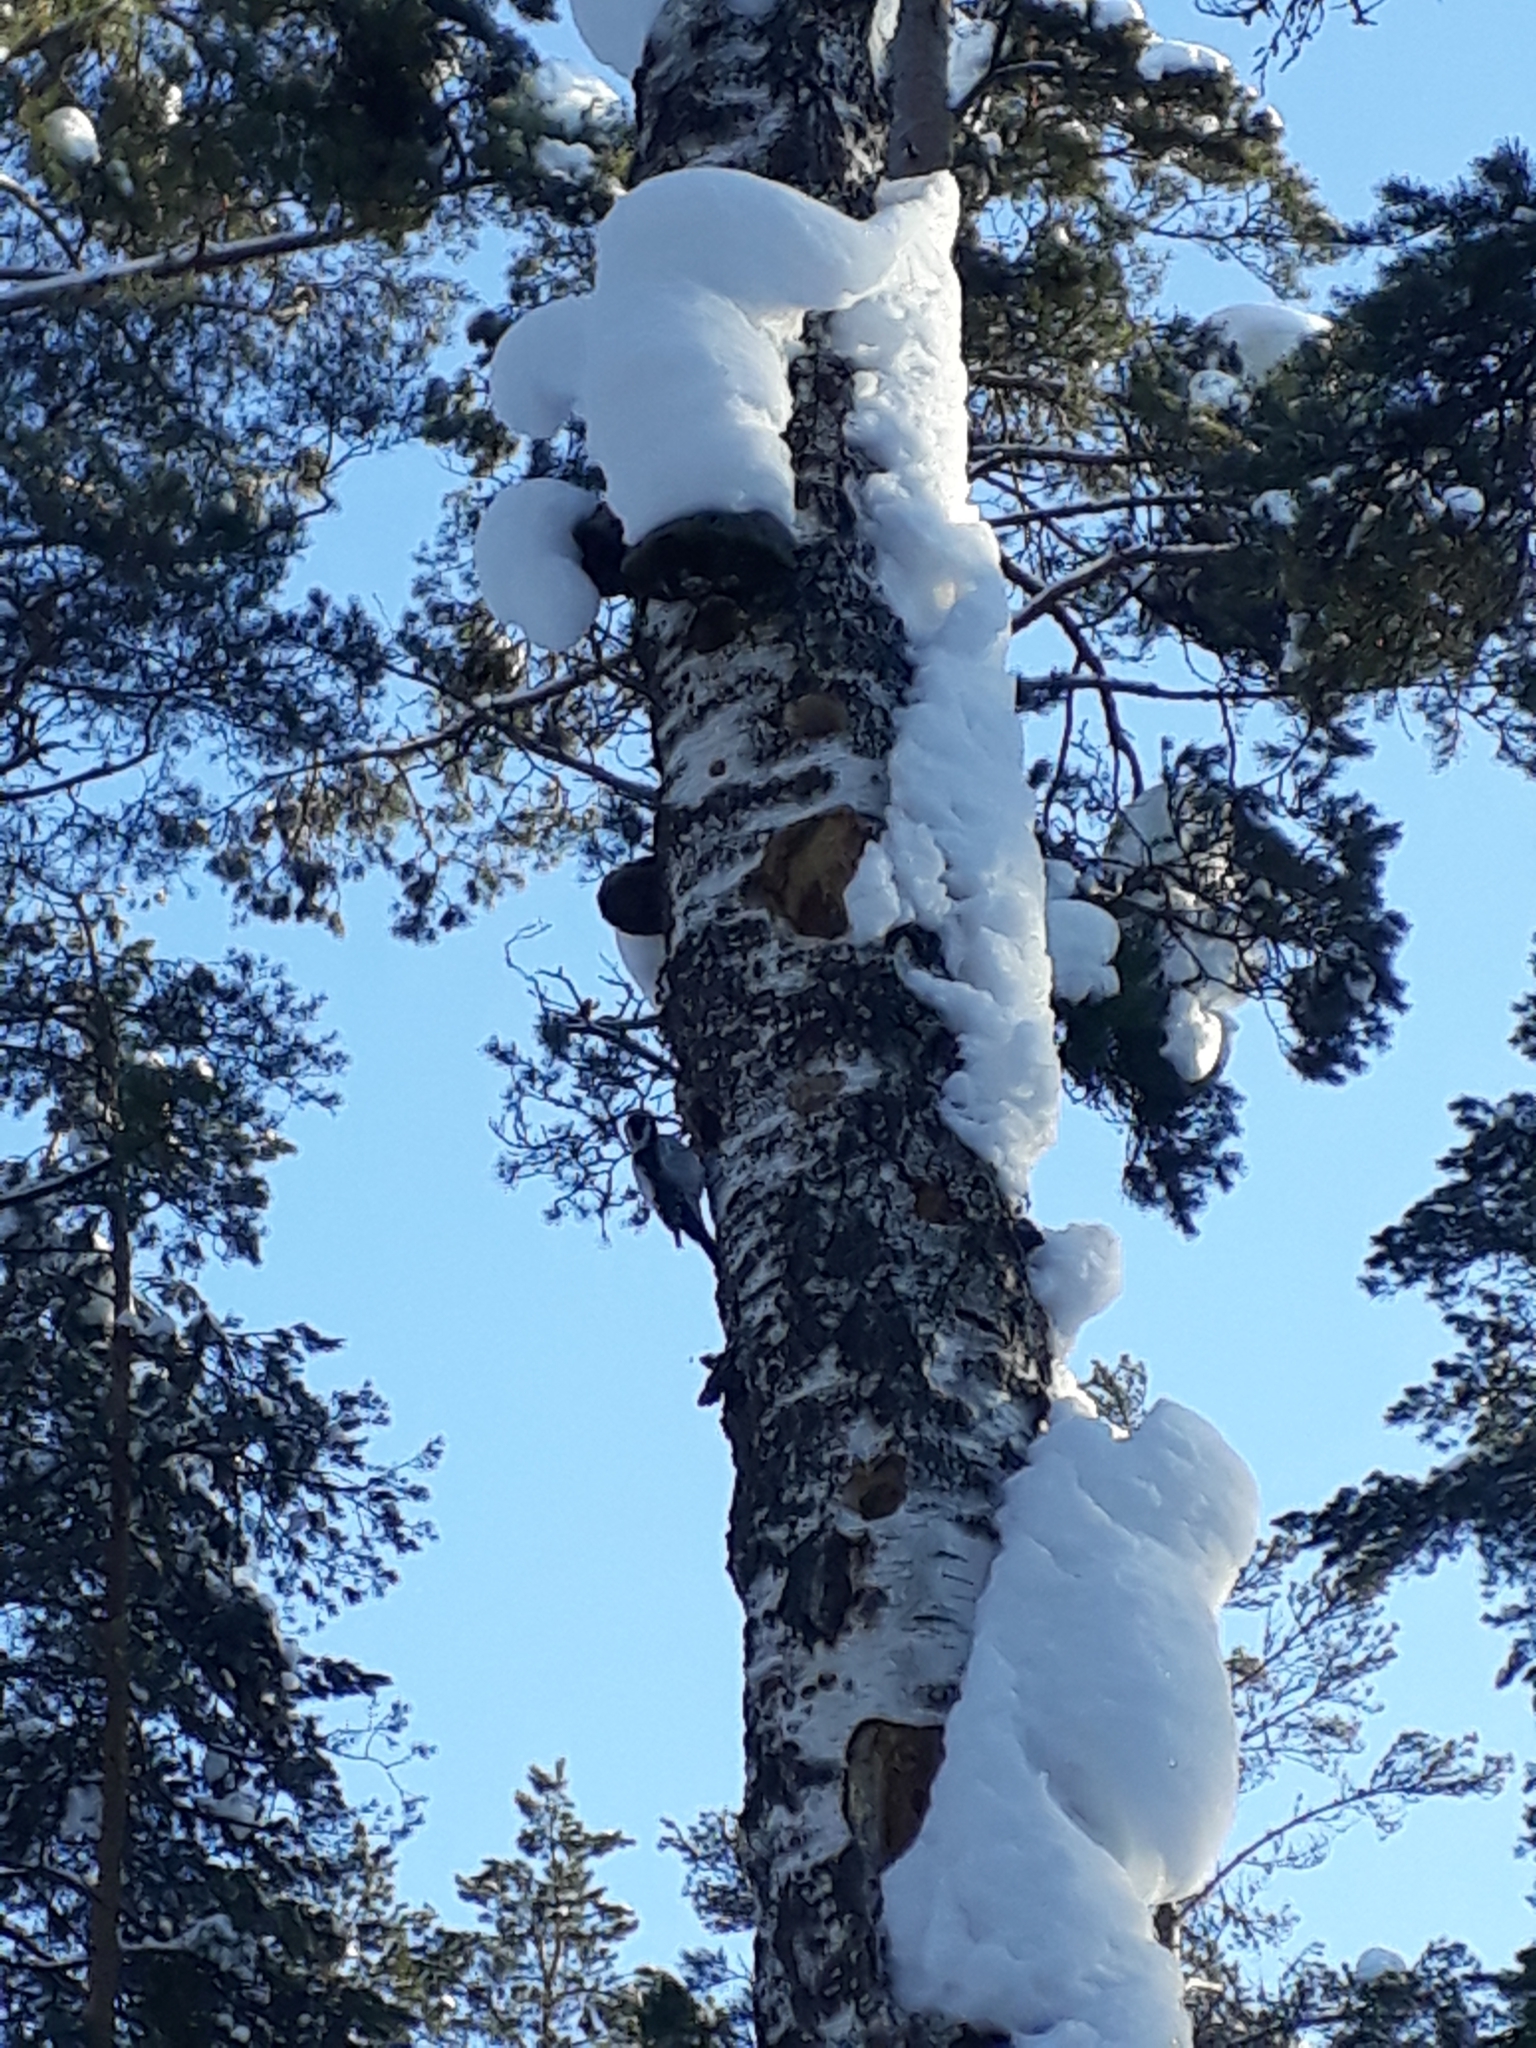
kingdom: Animalia
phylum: Chordata
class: Aves
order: Piciformes
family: Picidae
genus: Picoides
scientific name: Picoides tridactylus
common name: Eurasian three-toed woodpecker
